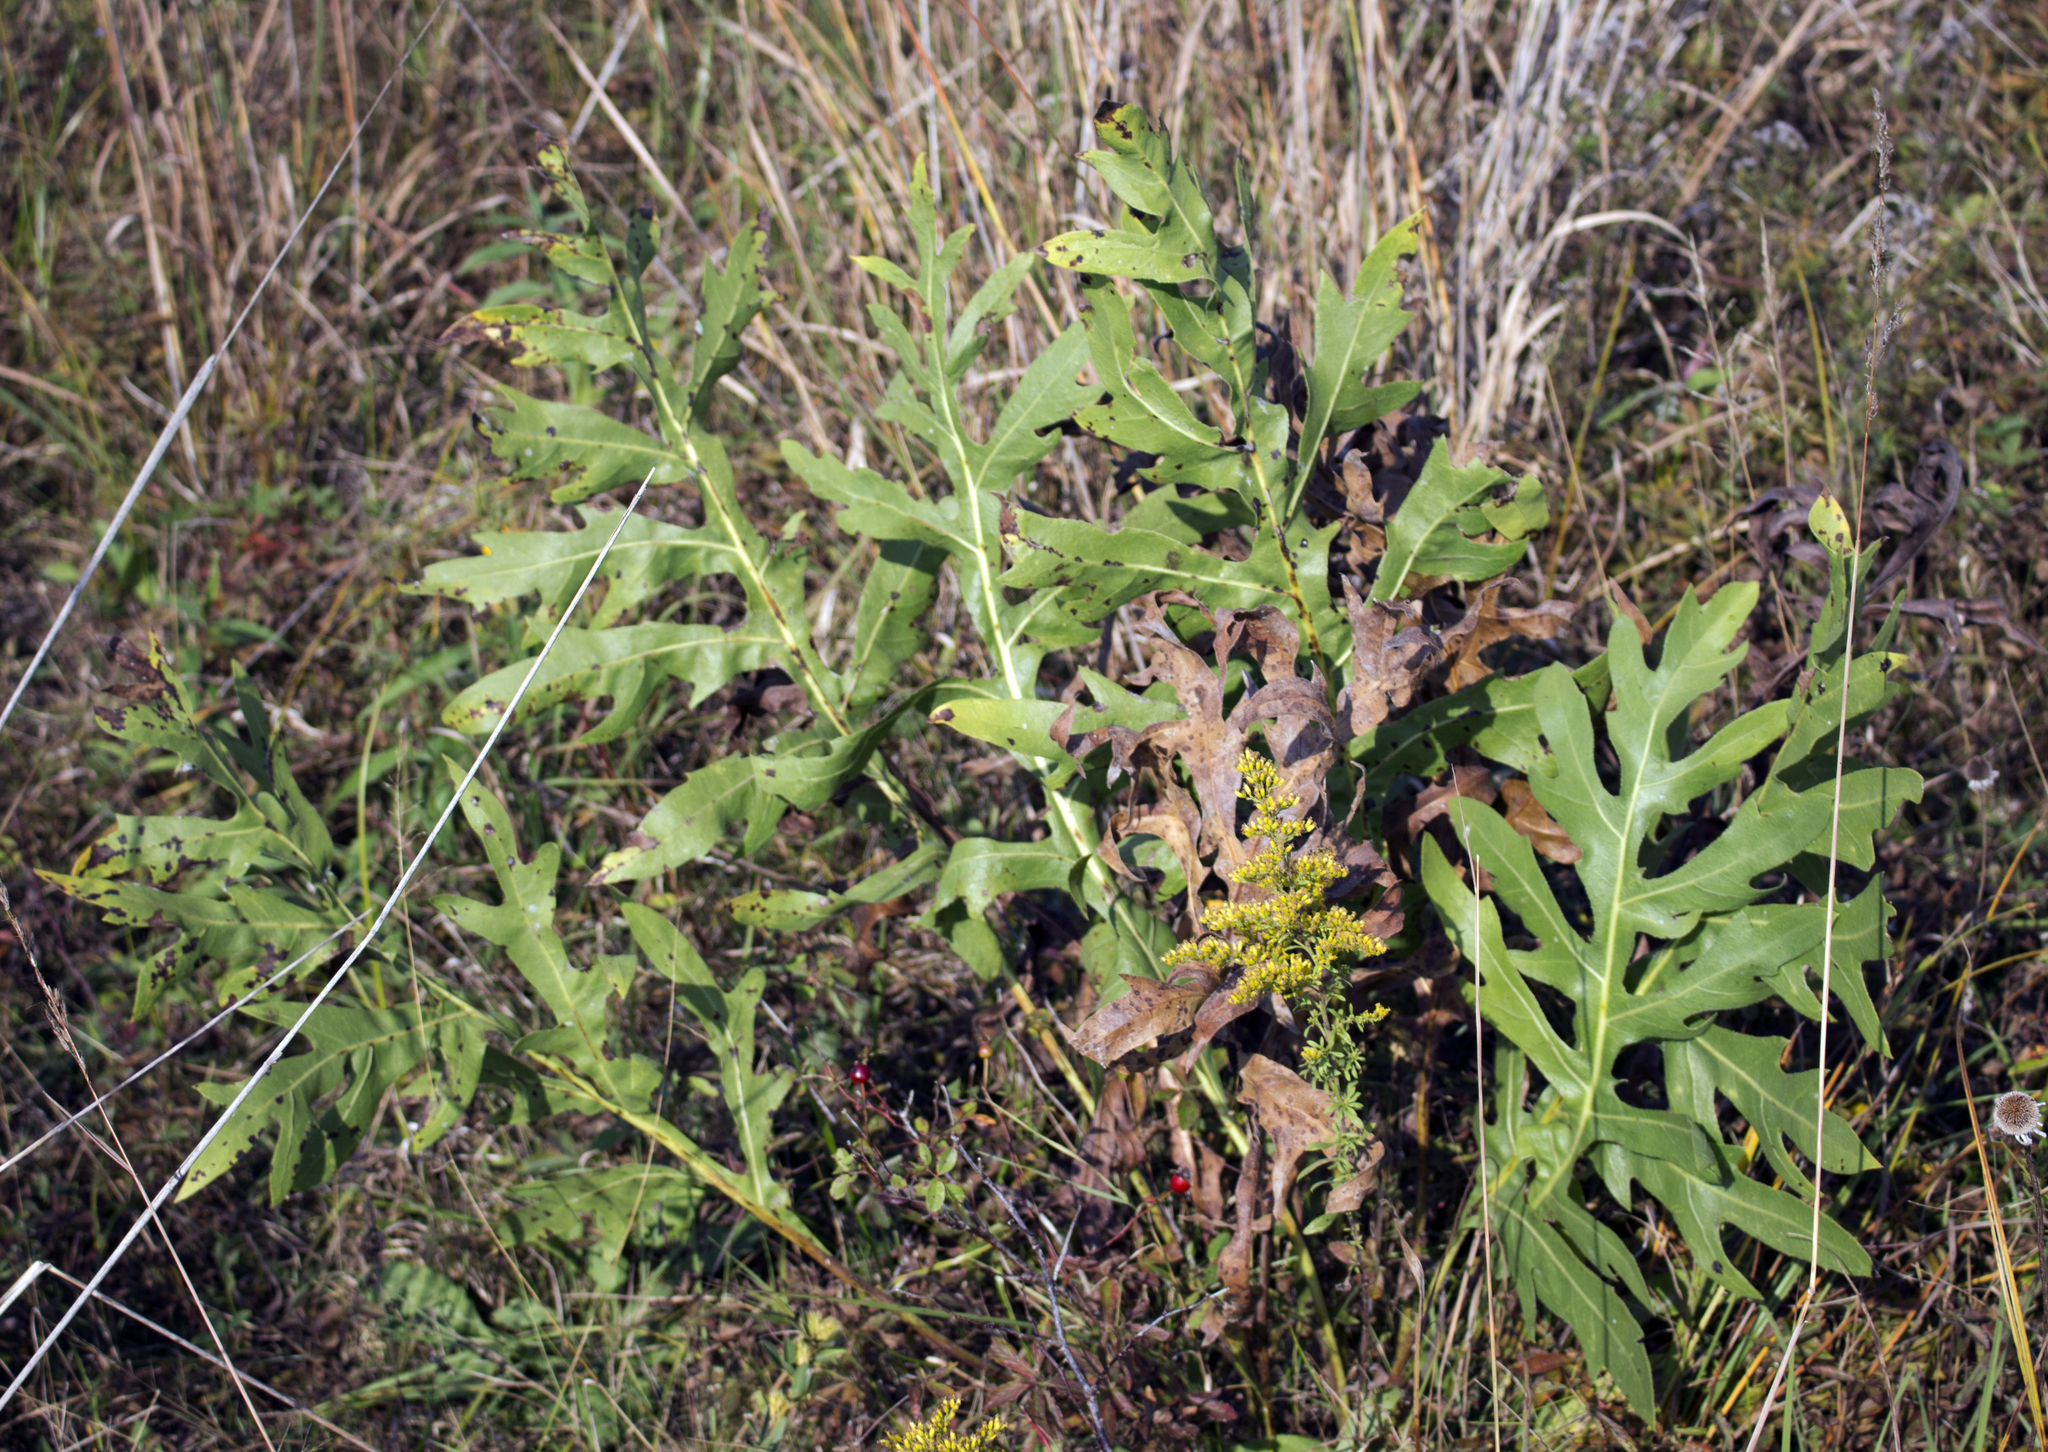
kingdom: Plantae
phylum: Tracheophyta
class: Magnoliopsida
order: Asterales
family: Asteraceae
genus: Silphium
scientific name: Silphium laciniatum
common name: Polarplant
